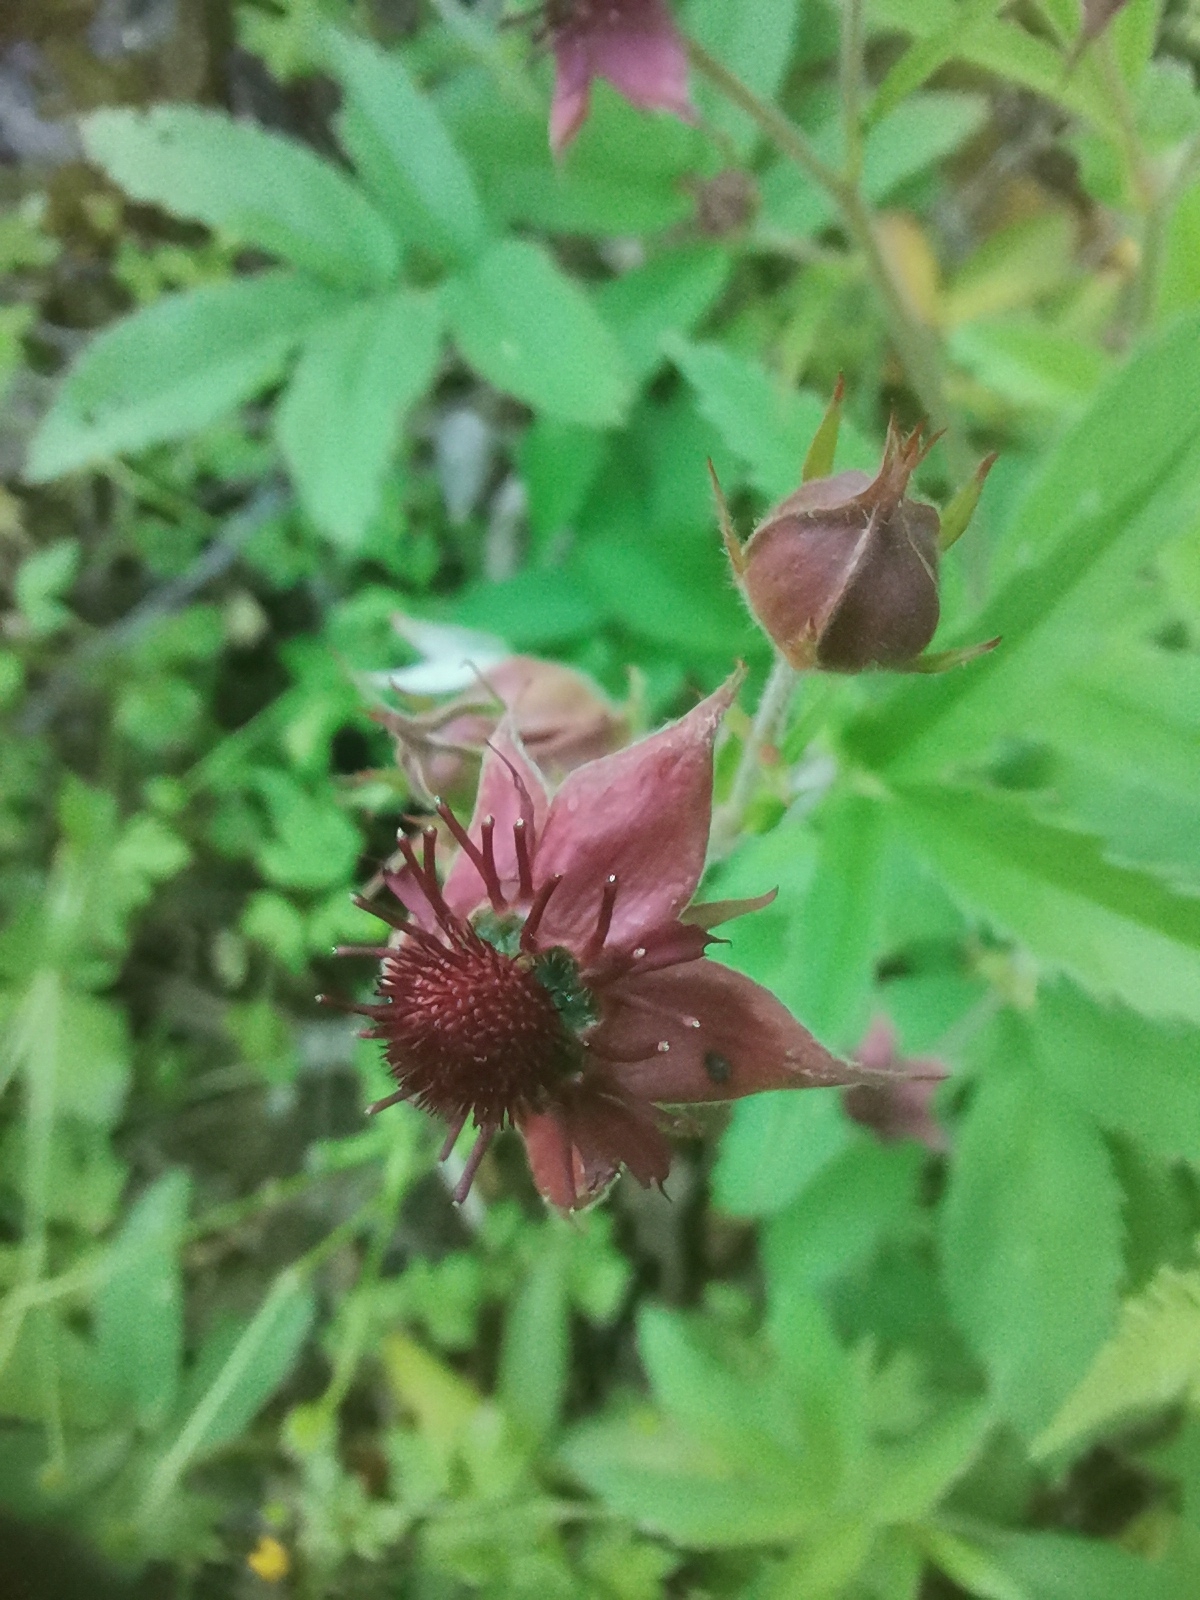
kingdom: Plantae
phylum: Tracheophyta
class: Magnoliopsida
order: Rosales
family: Rosaceae
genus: Comarum
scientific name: Comarum palustre
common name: Marsh cinquefoil
